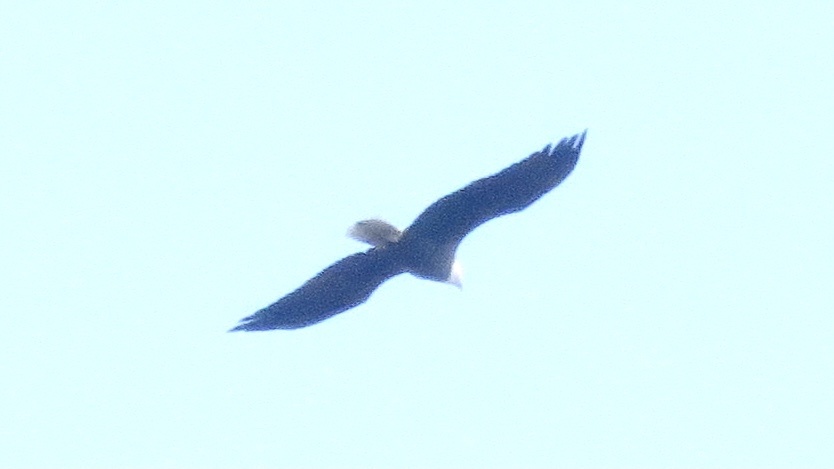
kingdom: Animalia
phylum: Chordata
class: Aves
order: Accipitriformes
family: Accipitridae
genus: Haliaeetus
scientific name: Haliaeetus leucocephalus
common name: Bald eagle
